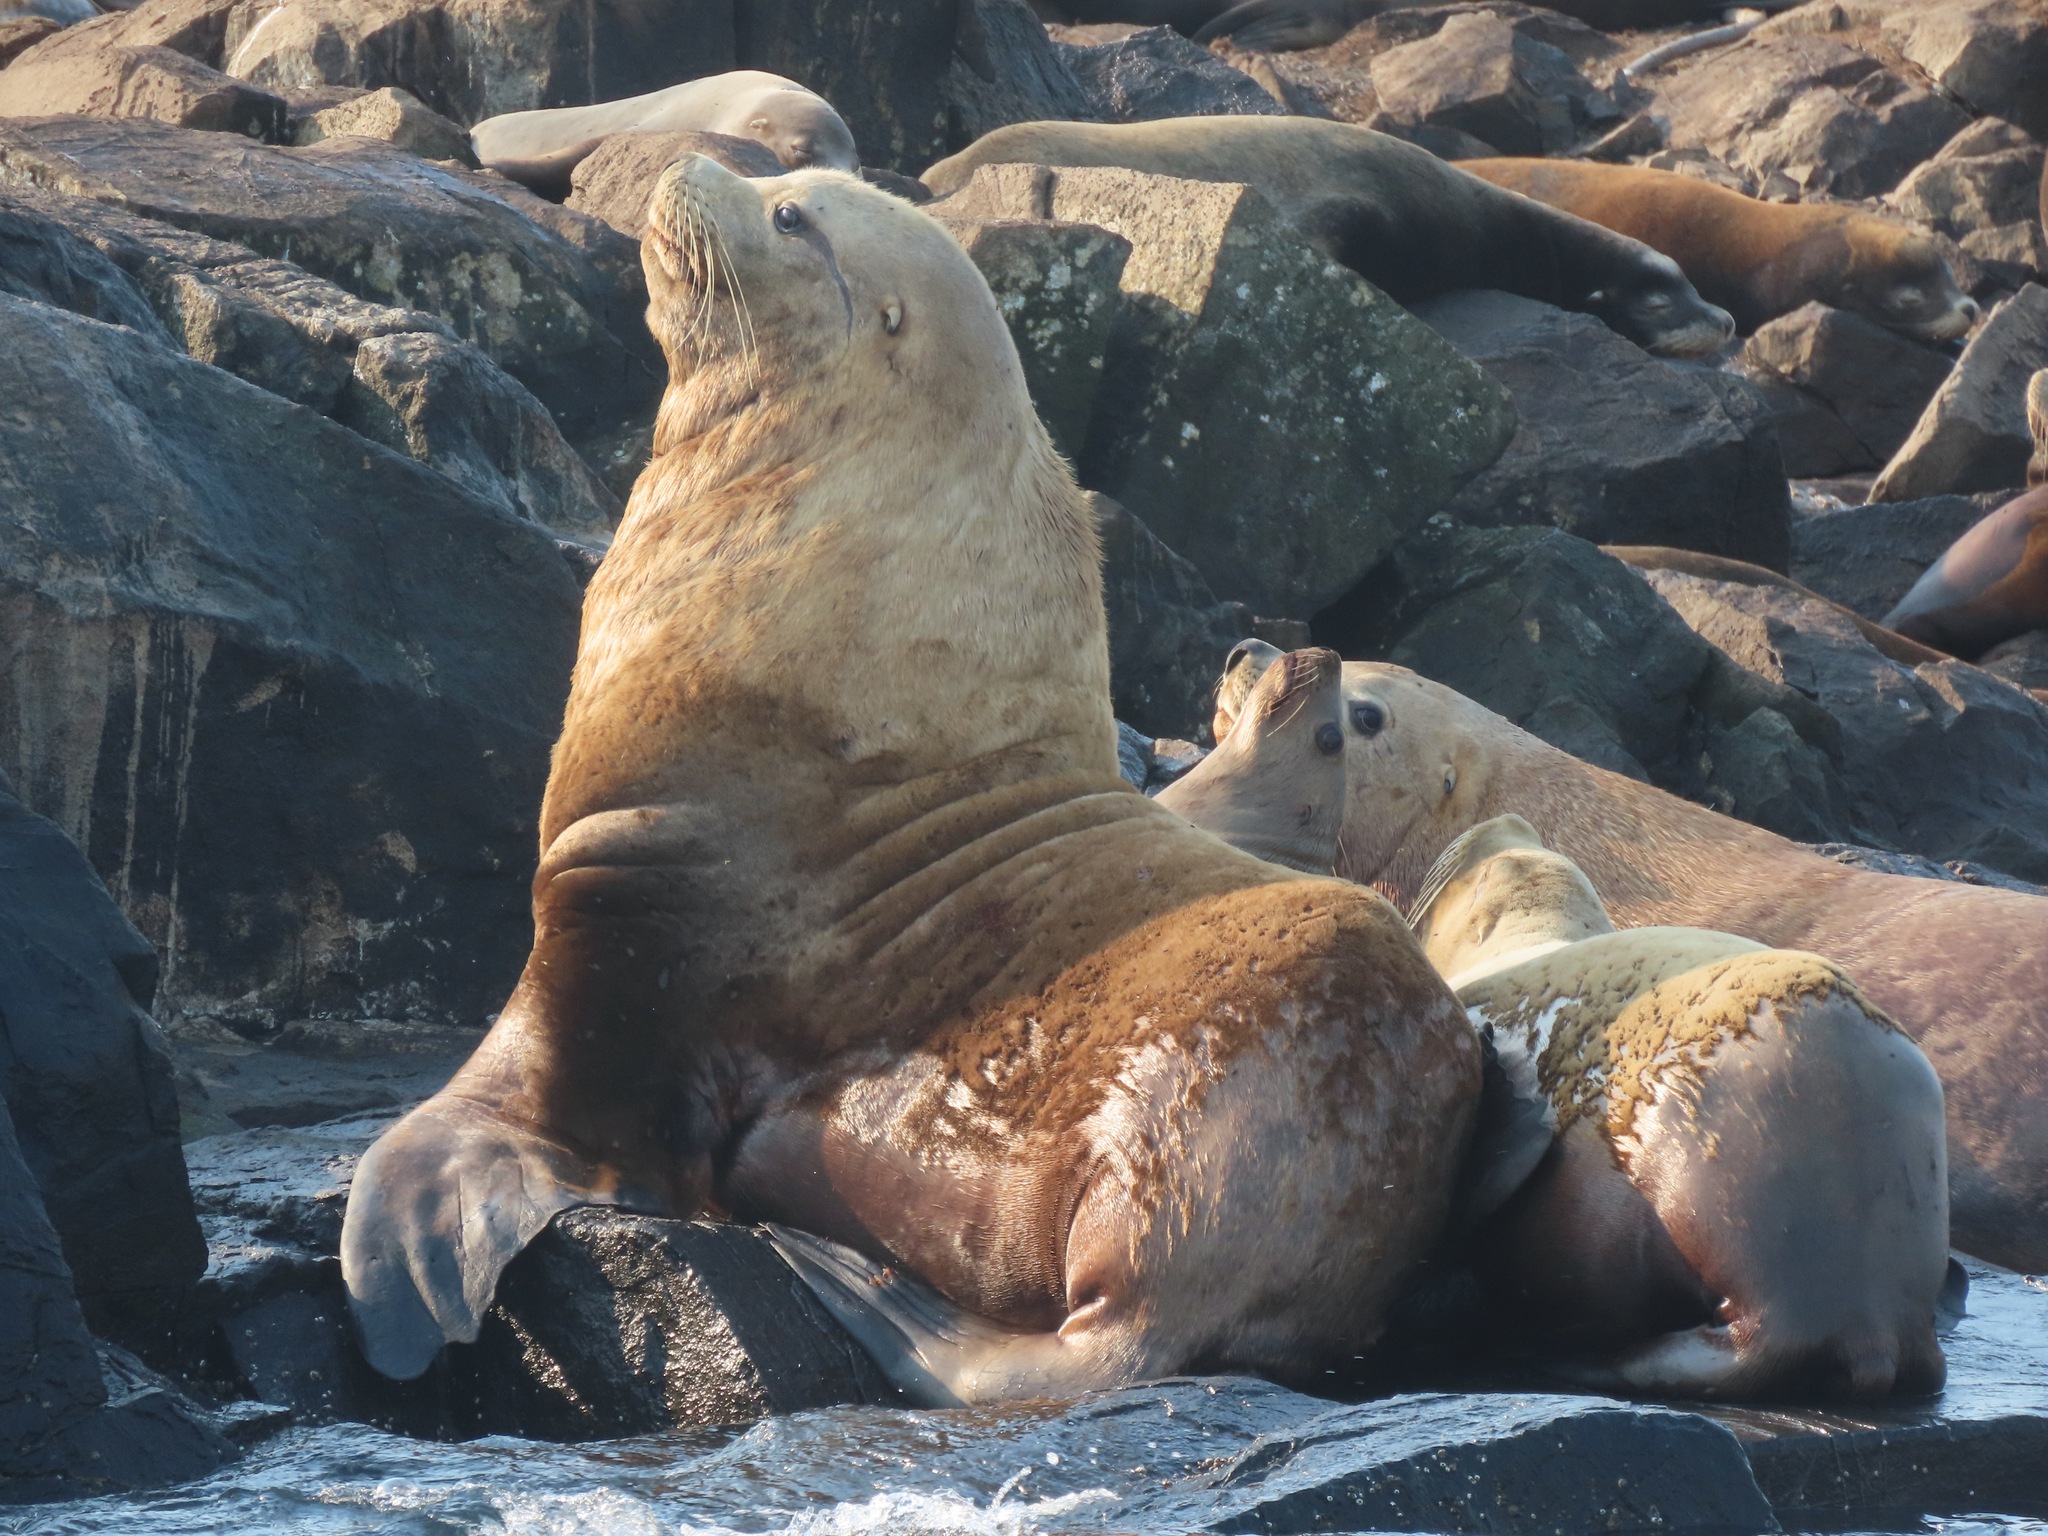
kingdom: Animalia
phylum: Chordata
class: Mammalia
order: Carnivora
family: Otariidae
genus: Eumetopias
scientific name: Eumetopias jubatus
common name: Steller sea lion
